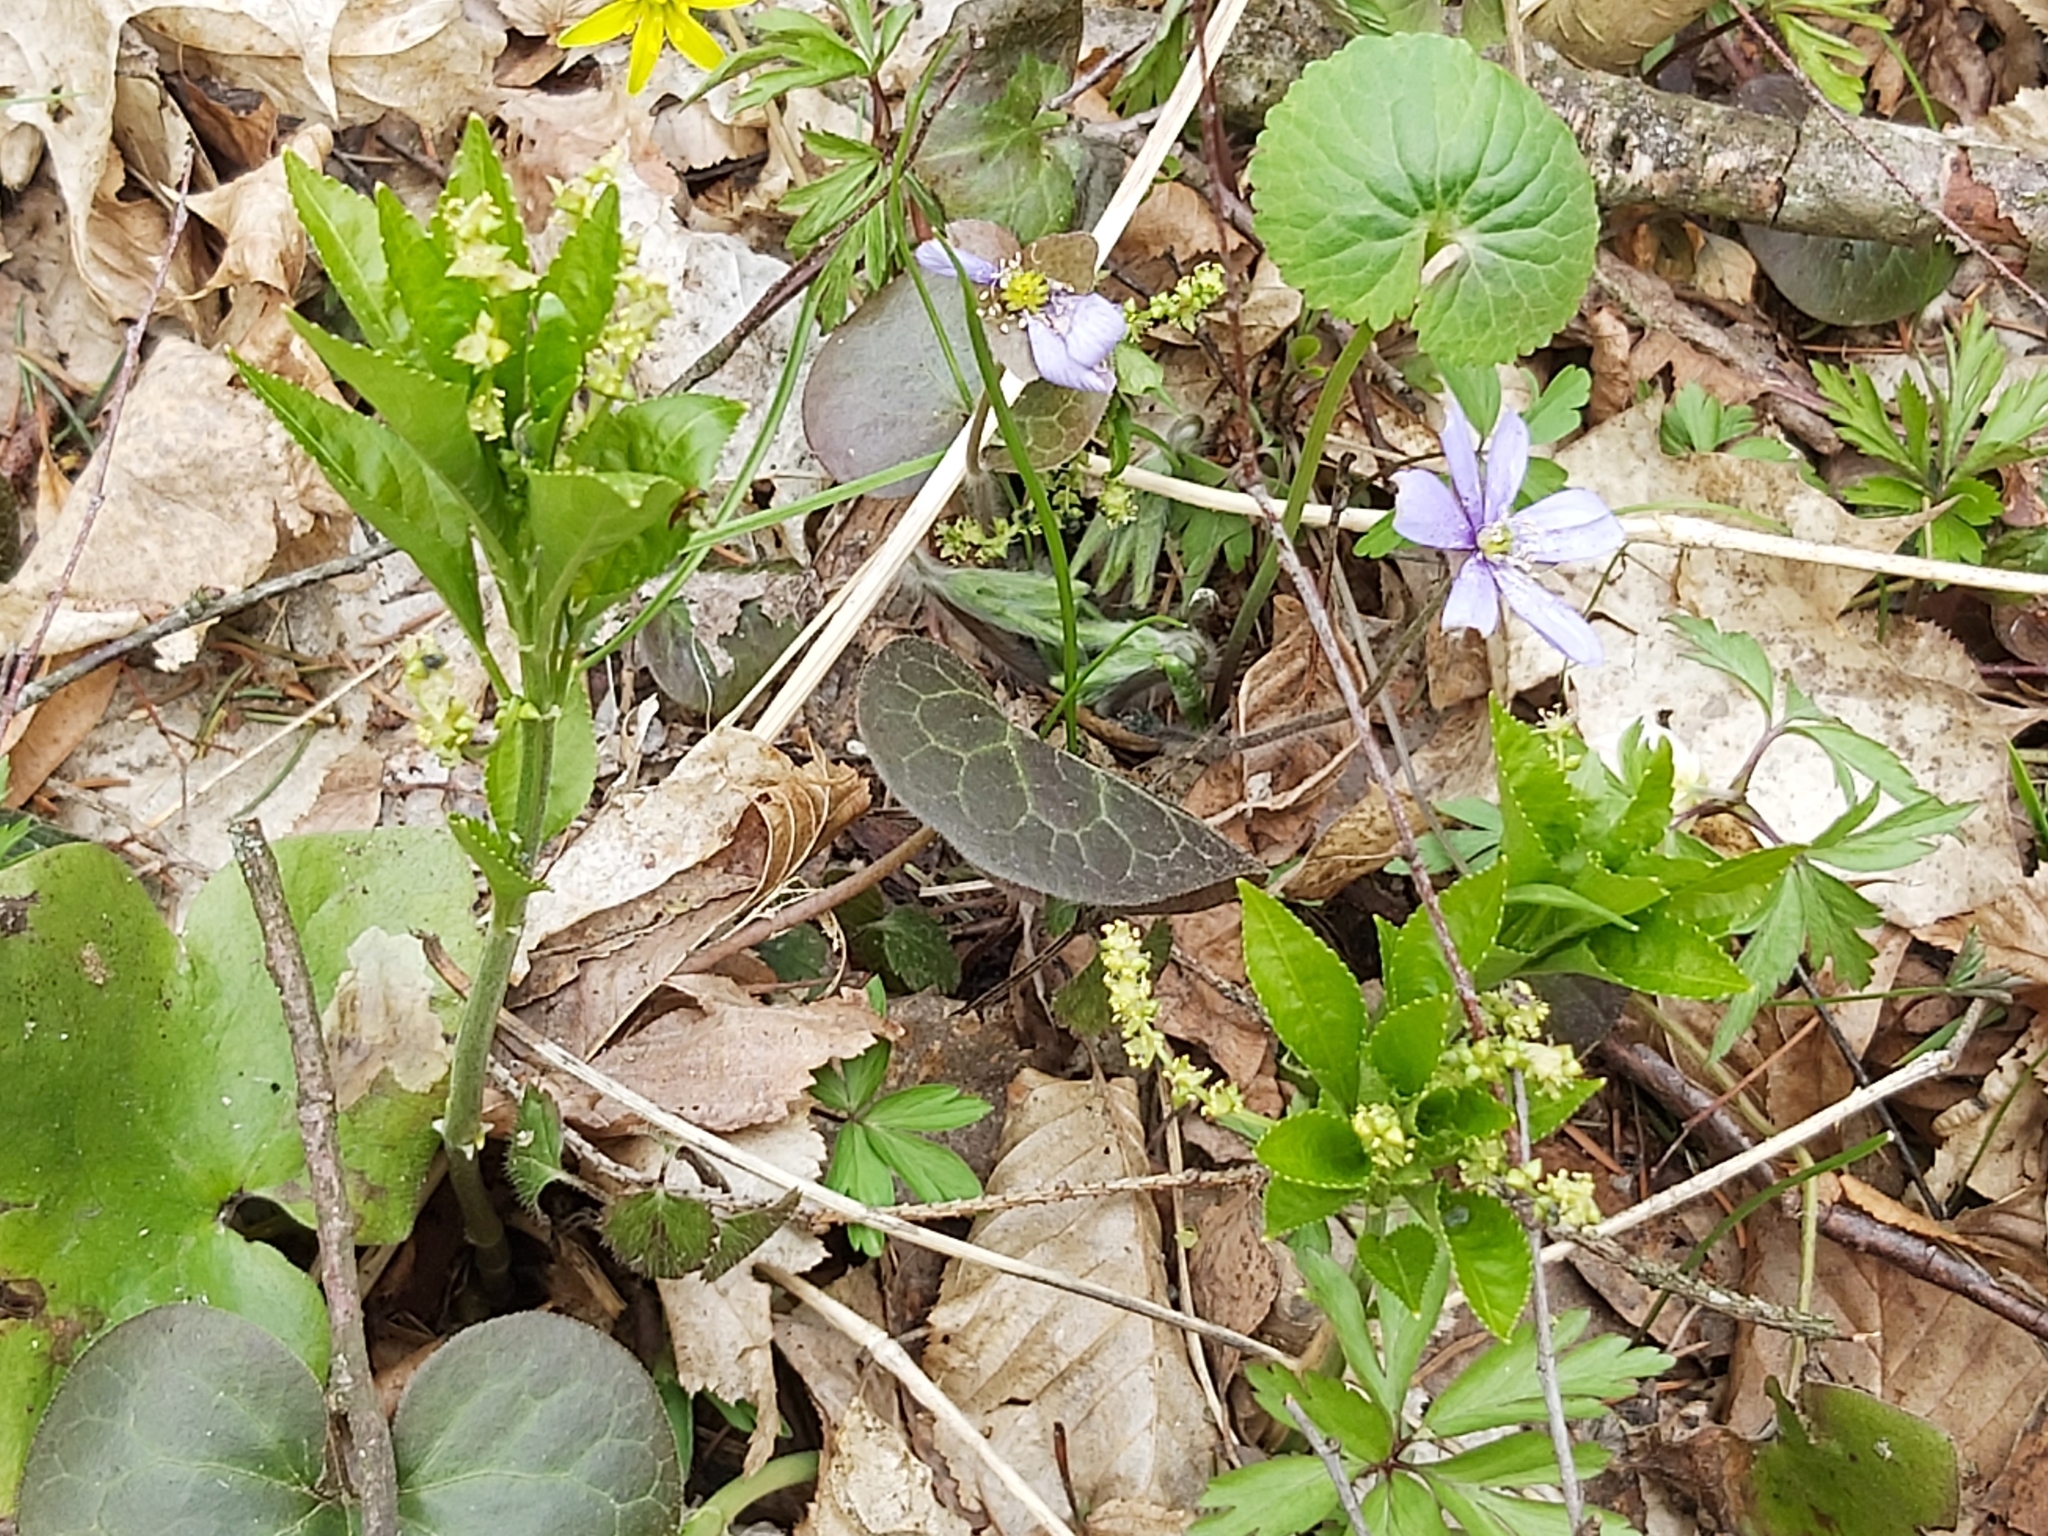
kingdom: Plantae
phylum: Tracheophyta
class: Magnoliopsida
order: Malpighiales
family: Euphorbiaceae
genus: Mercurialis
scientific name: Mercurialis perennis
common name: Dog mercury
